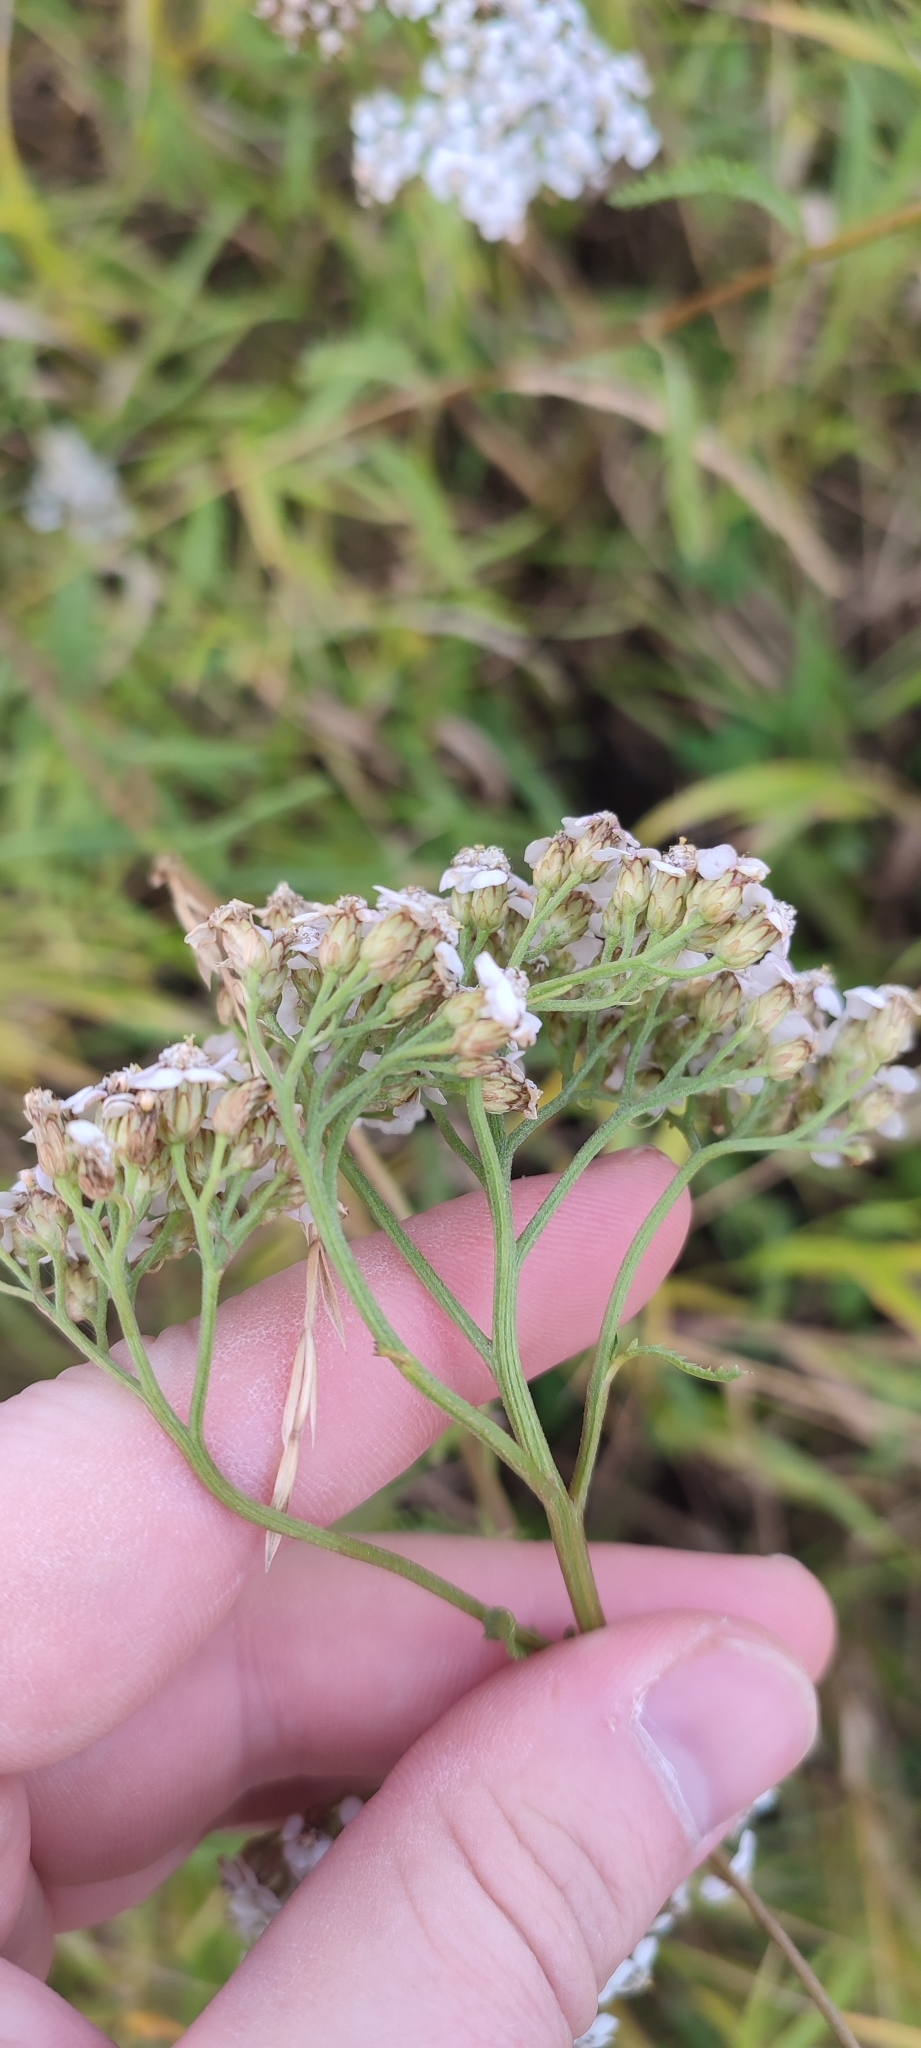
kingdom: Plantae
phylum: Tracheophyta
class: Magnoliopsida
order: Asterales
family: Asteraceae
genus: Achillea
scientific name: Achillea millefolium
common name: Yarrow
